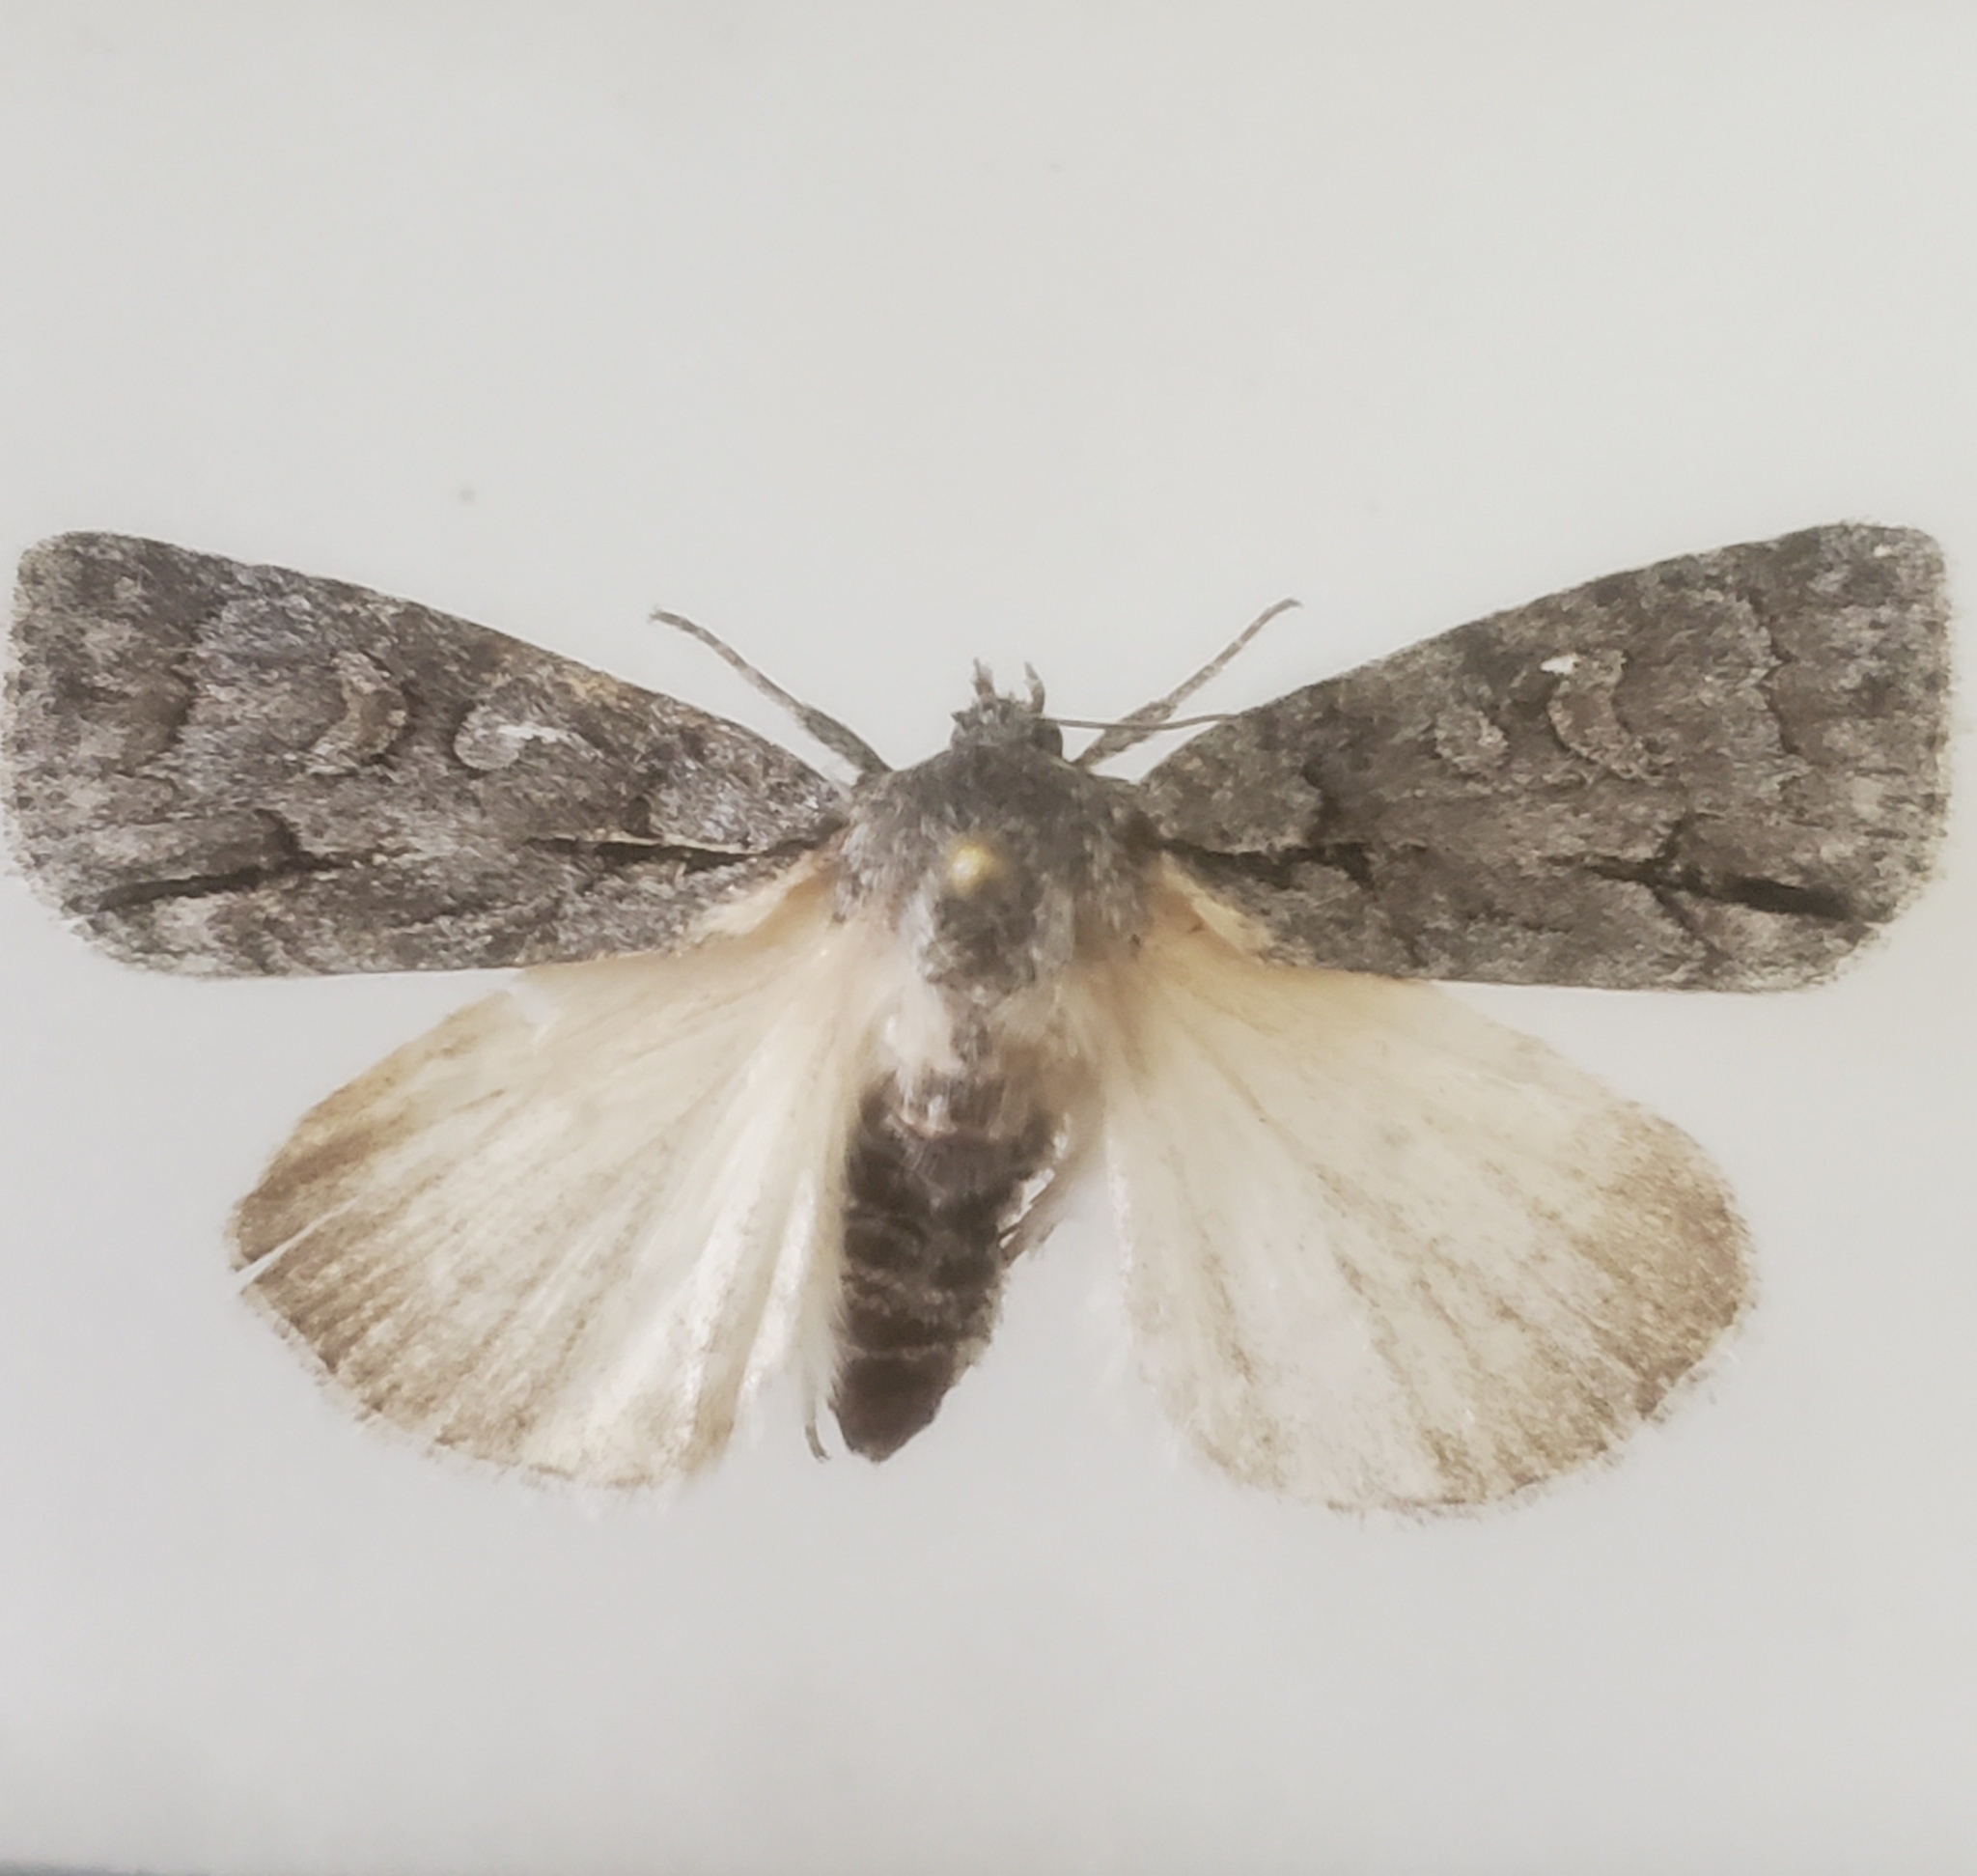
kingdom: Animalia
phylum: Arthropoda
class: Insecta
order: Lepidoptera
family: Noctuidae
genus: Acronicta
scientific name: Acronicta grisea
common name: Gray dagger
